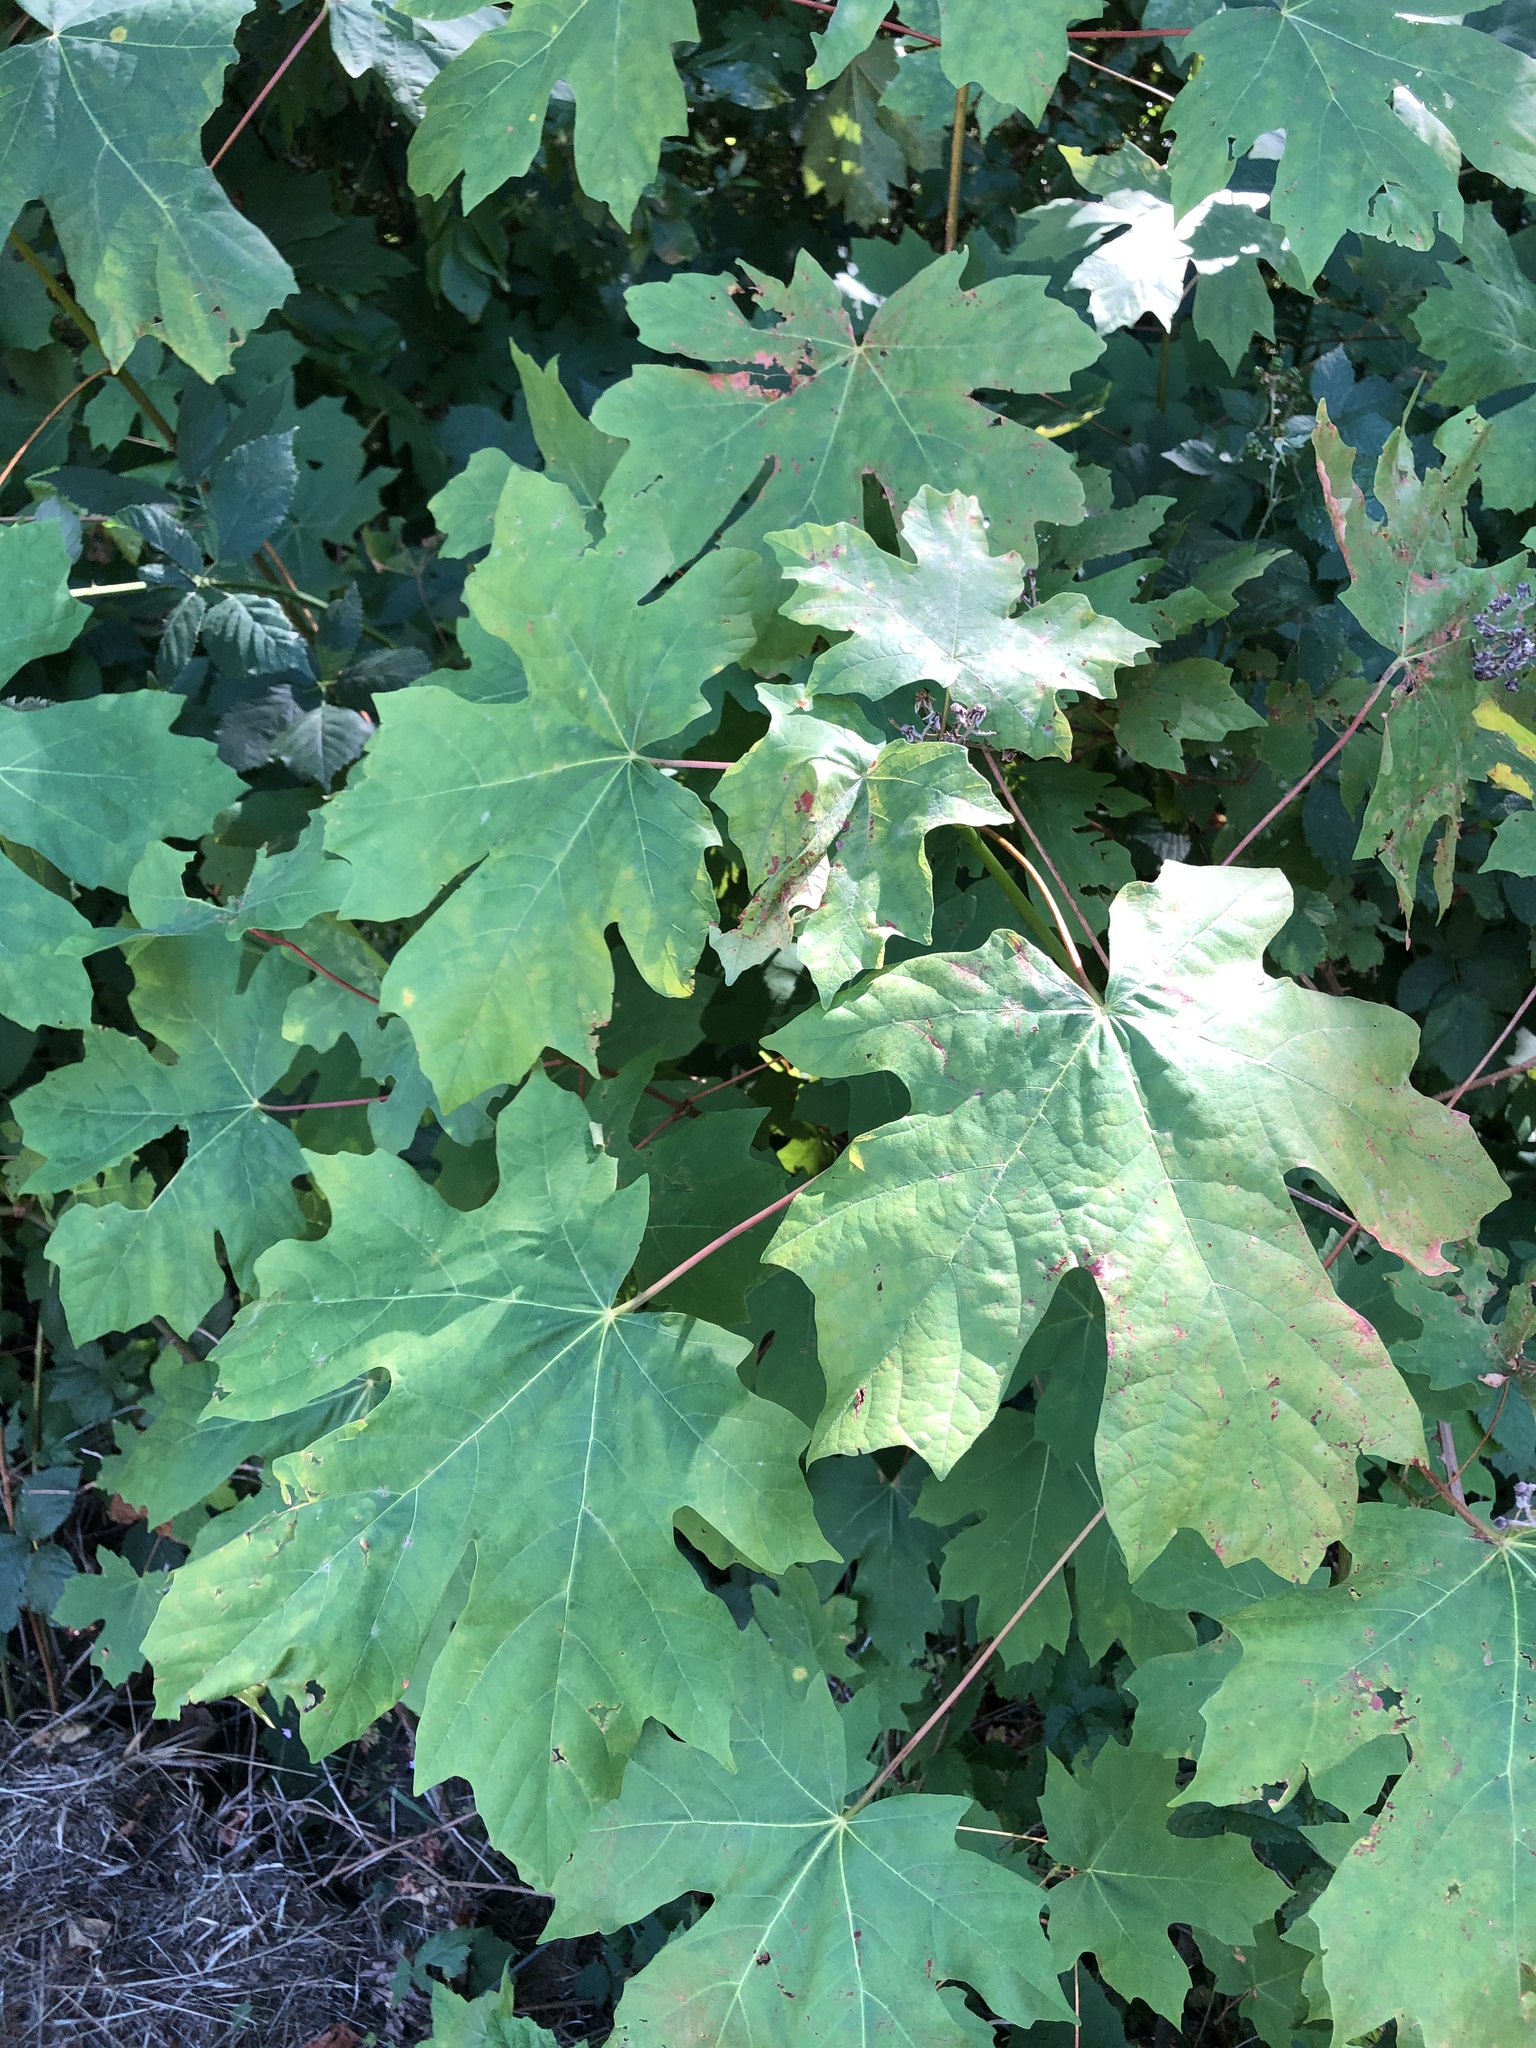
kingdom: Plantae
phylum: Tracheophyta
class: Magnoliopsida
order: Sapindales
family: Sapindaceae
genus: Acer
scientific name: Acer macrophyllum
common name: Oregon maple
